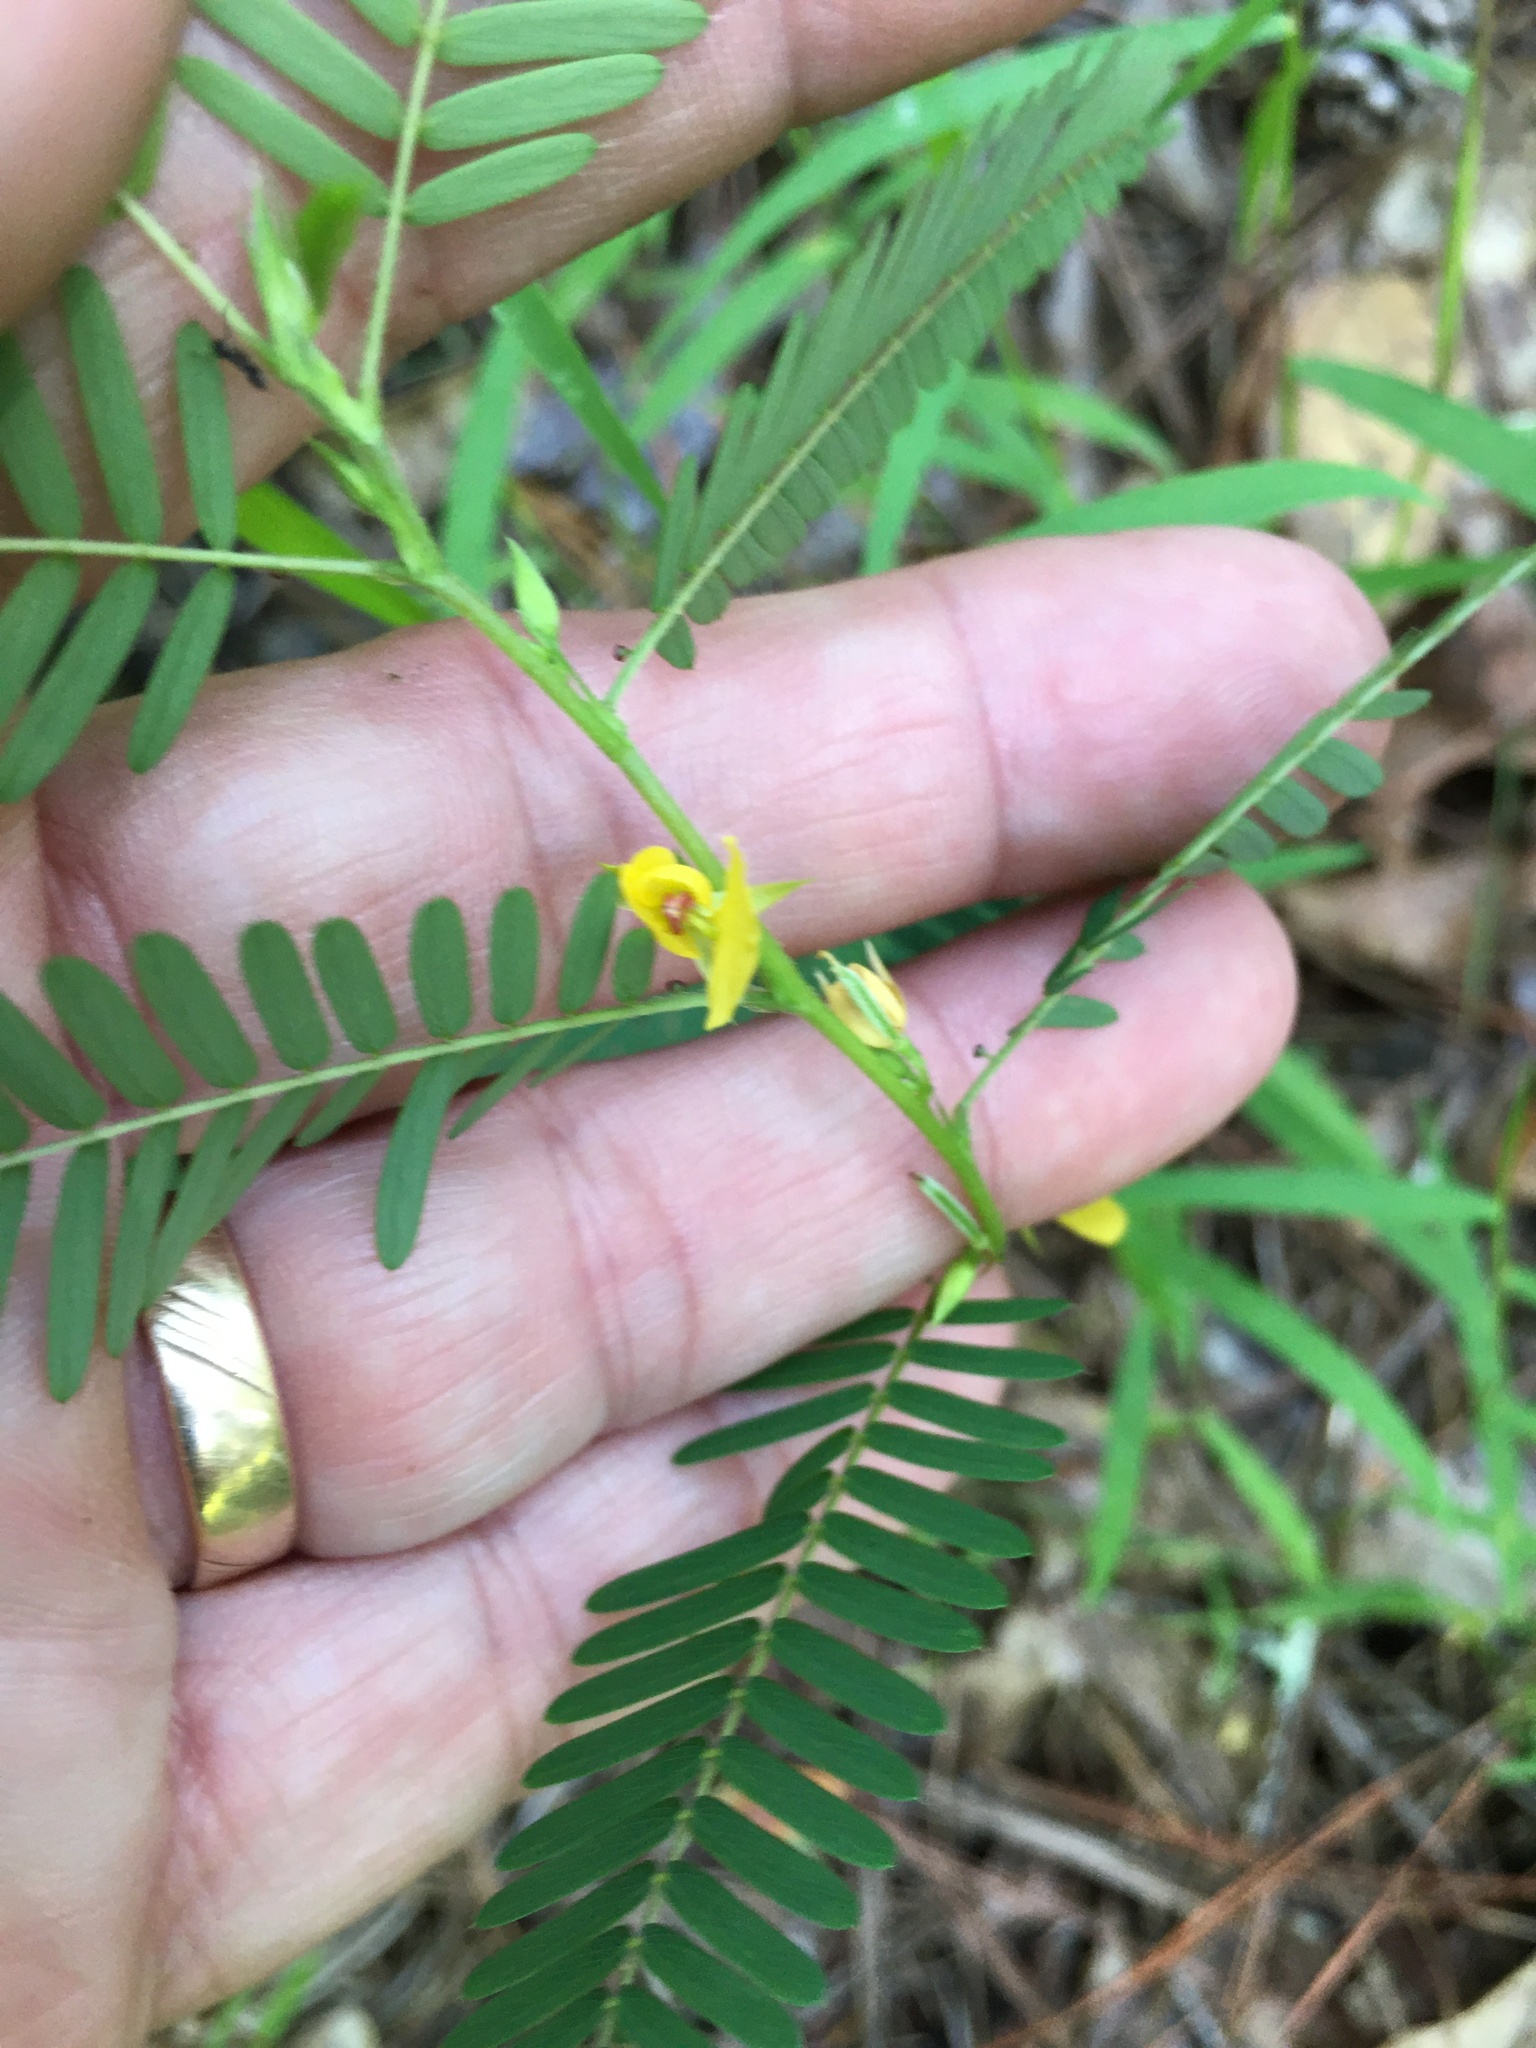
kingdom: Plantae
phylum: Tracheophyta
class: Magnoliopsida
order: Fabales
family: Fabaceae
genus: Chamaecrista
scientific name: Chamaecrista nictitans
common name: Sensitive cassia
